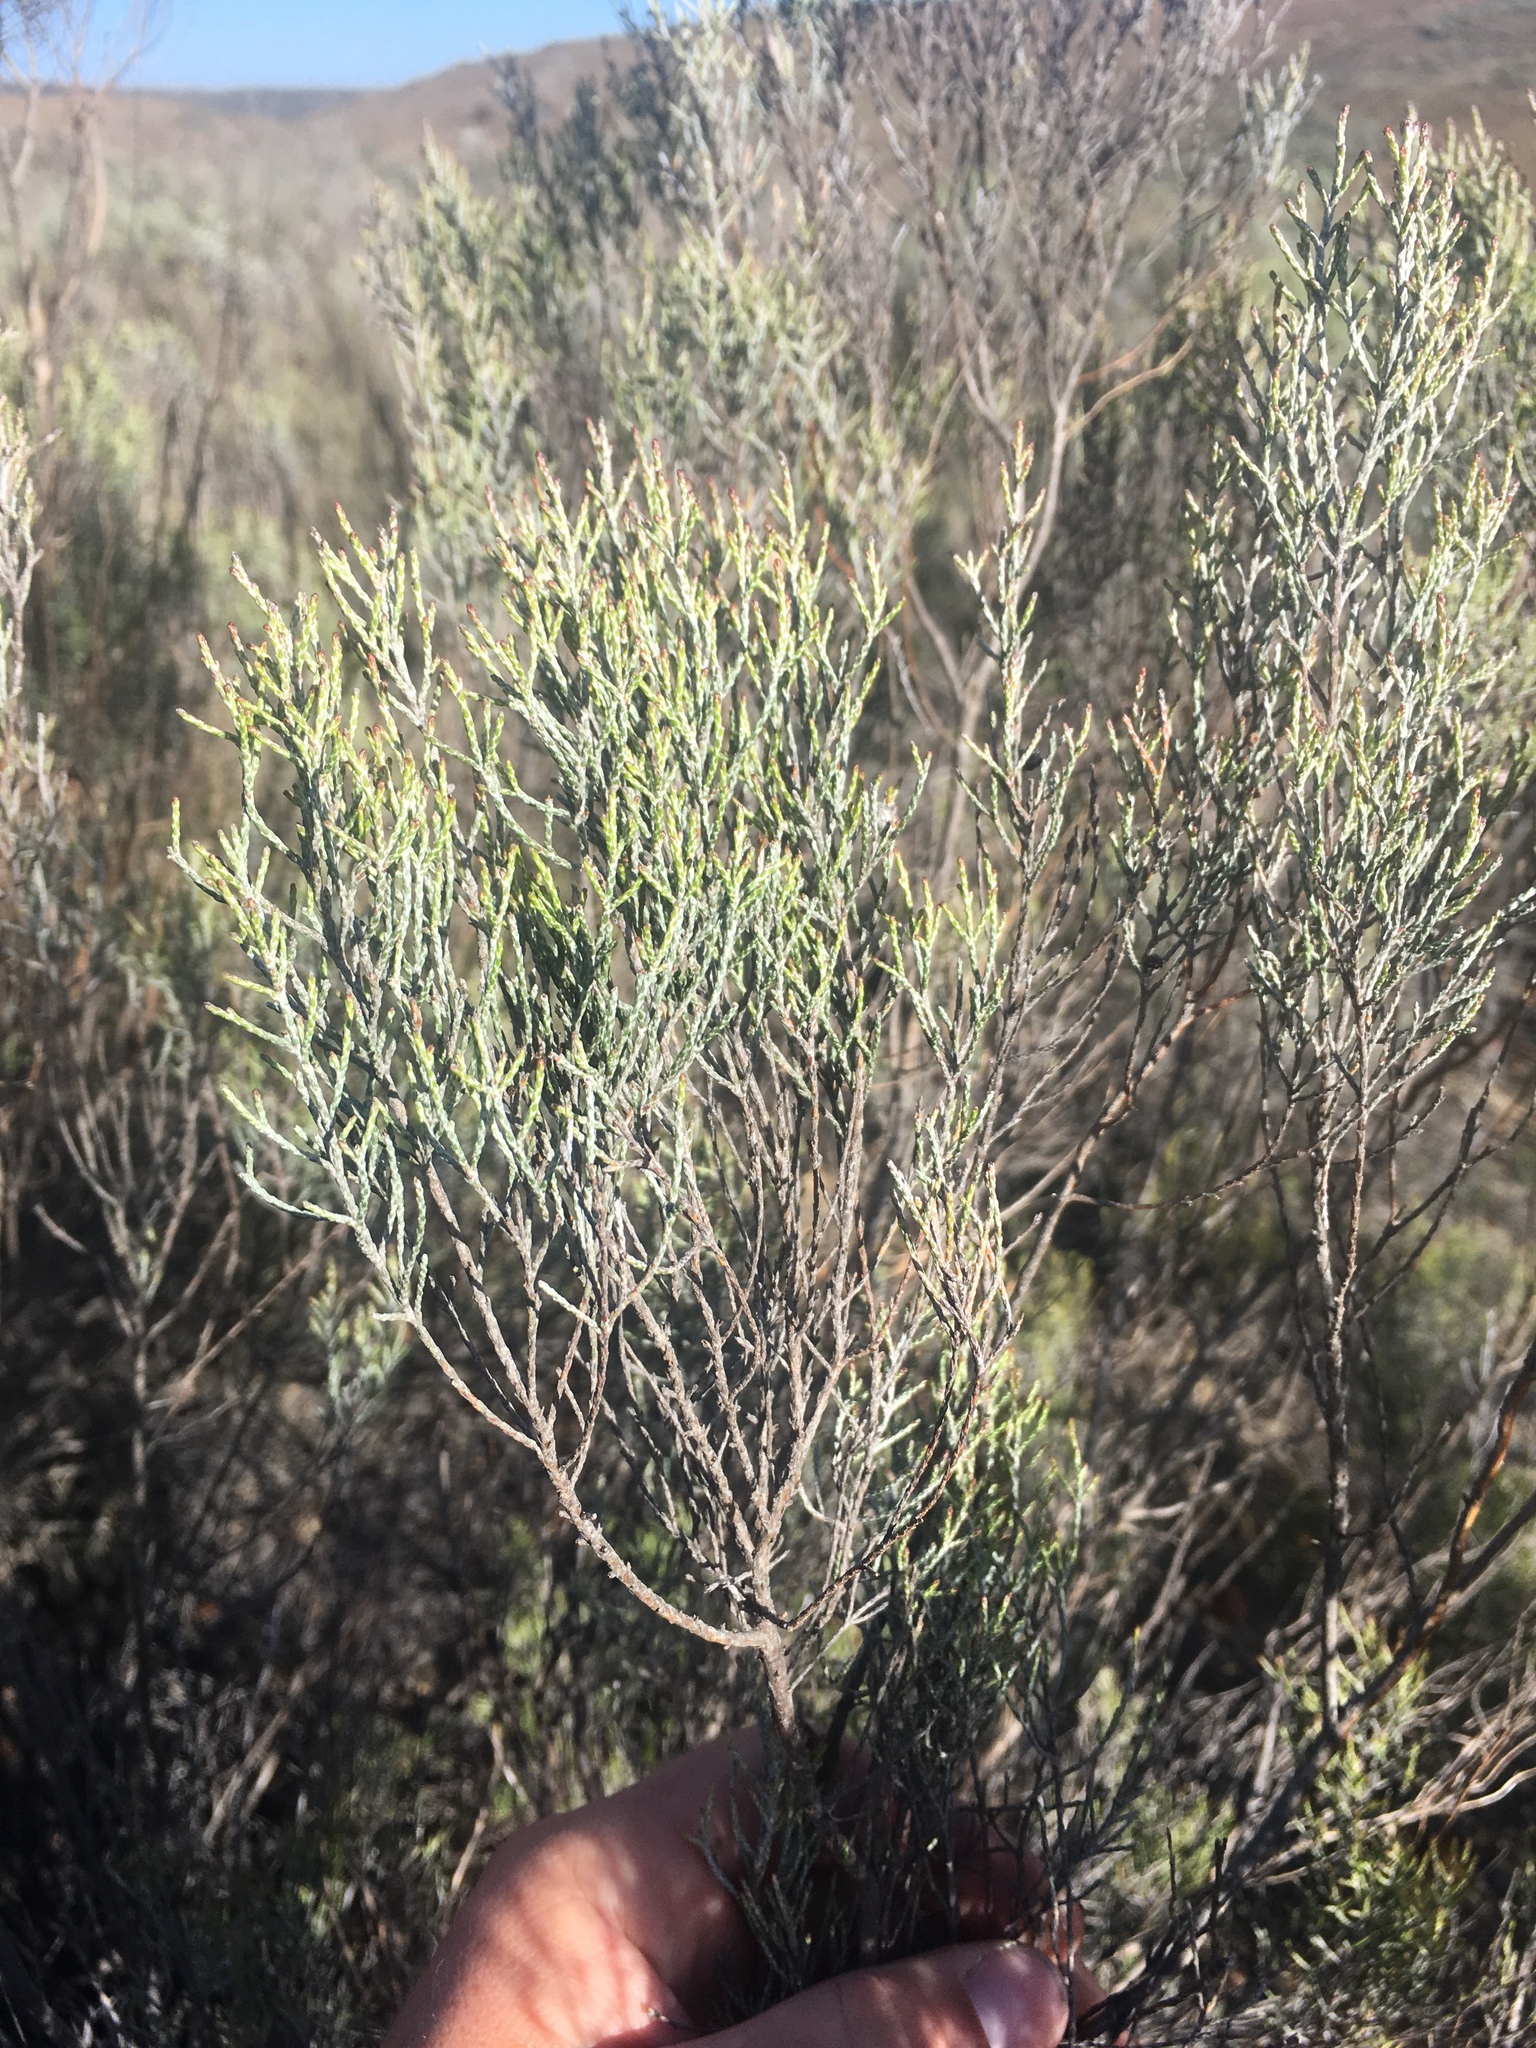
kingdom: Plantae
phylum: Tracheophyta
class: Magnoliopsida
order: Asterales
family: Asteraceae
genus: Dicerothamnus
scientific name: Dicerothamnus rhinocerotis
